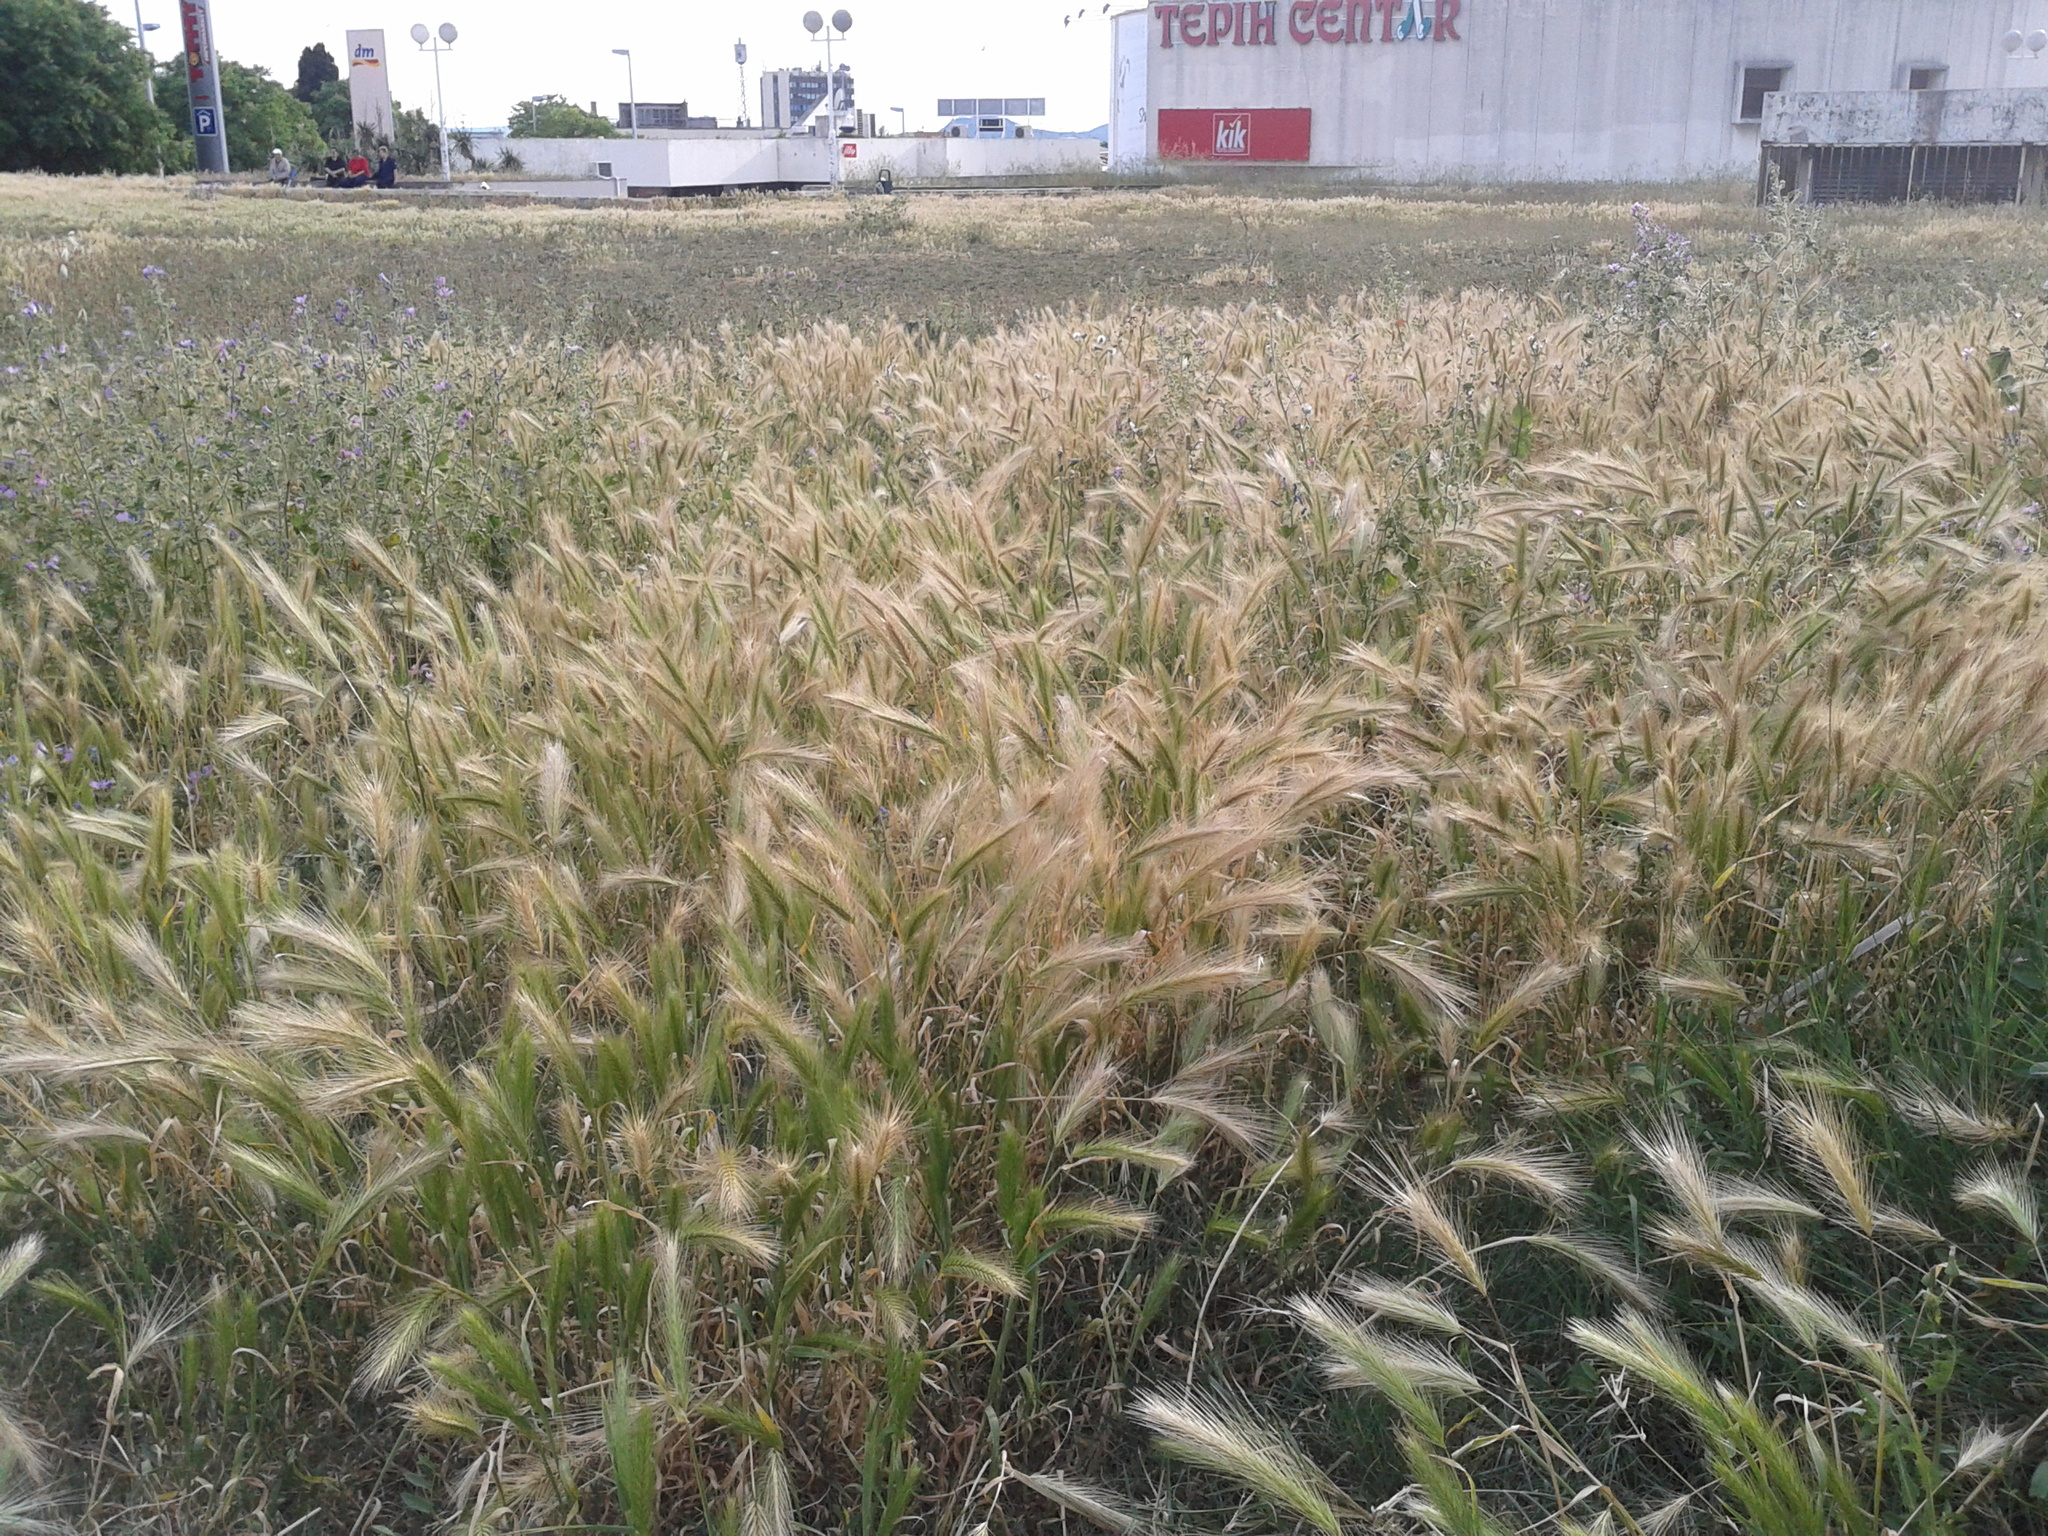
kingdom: Plantae
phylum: Tracheophyta
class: Liliopsida
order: Poales
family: Poaceae
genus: Hordeum
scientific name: Hordeum murinum
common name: Wall barley
